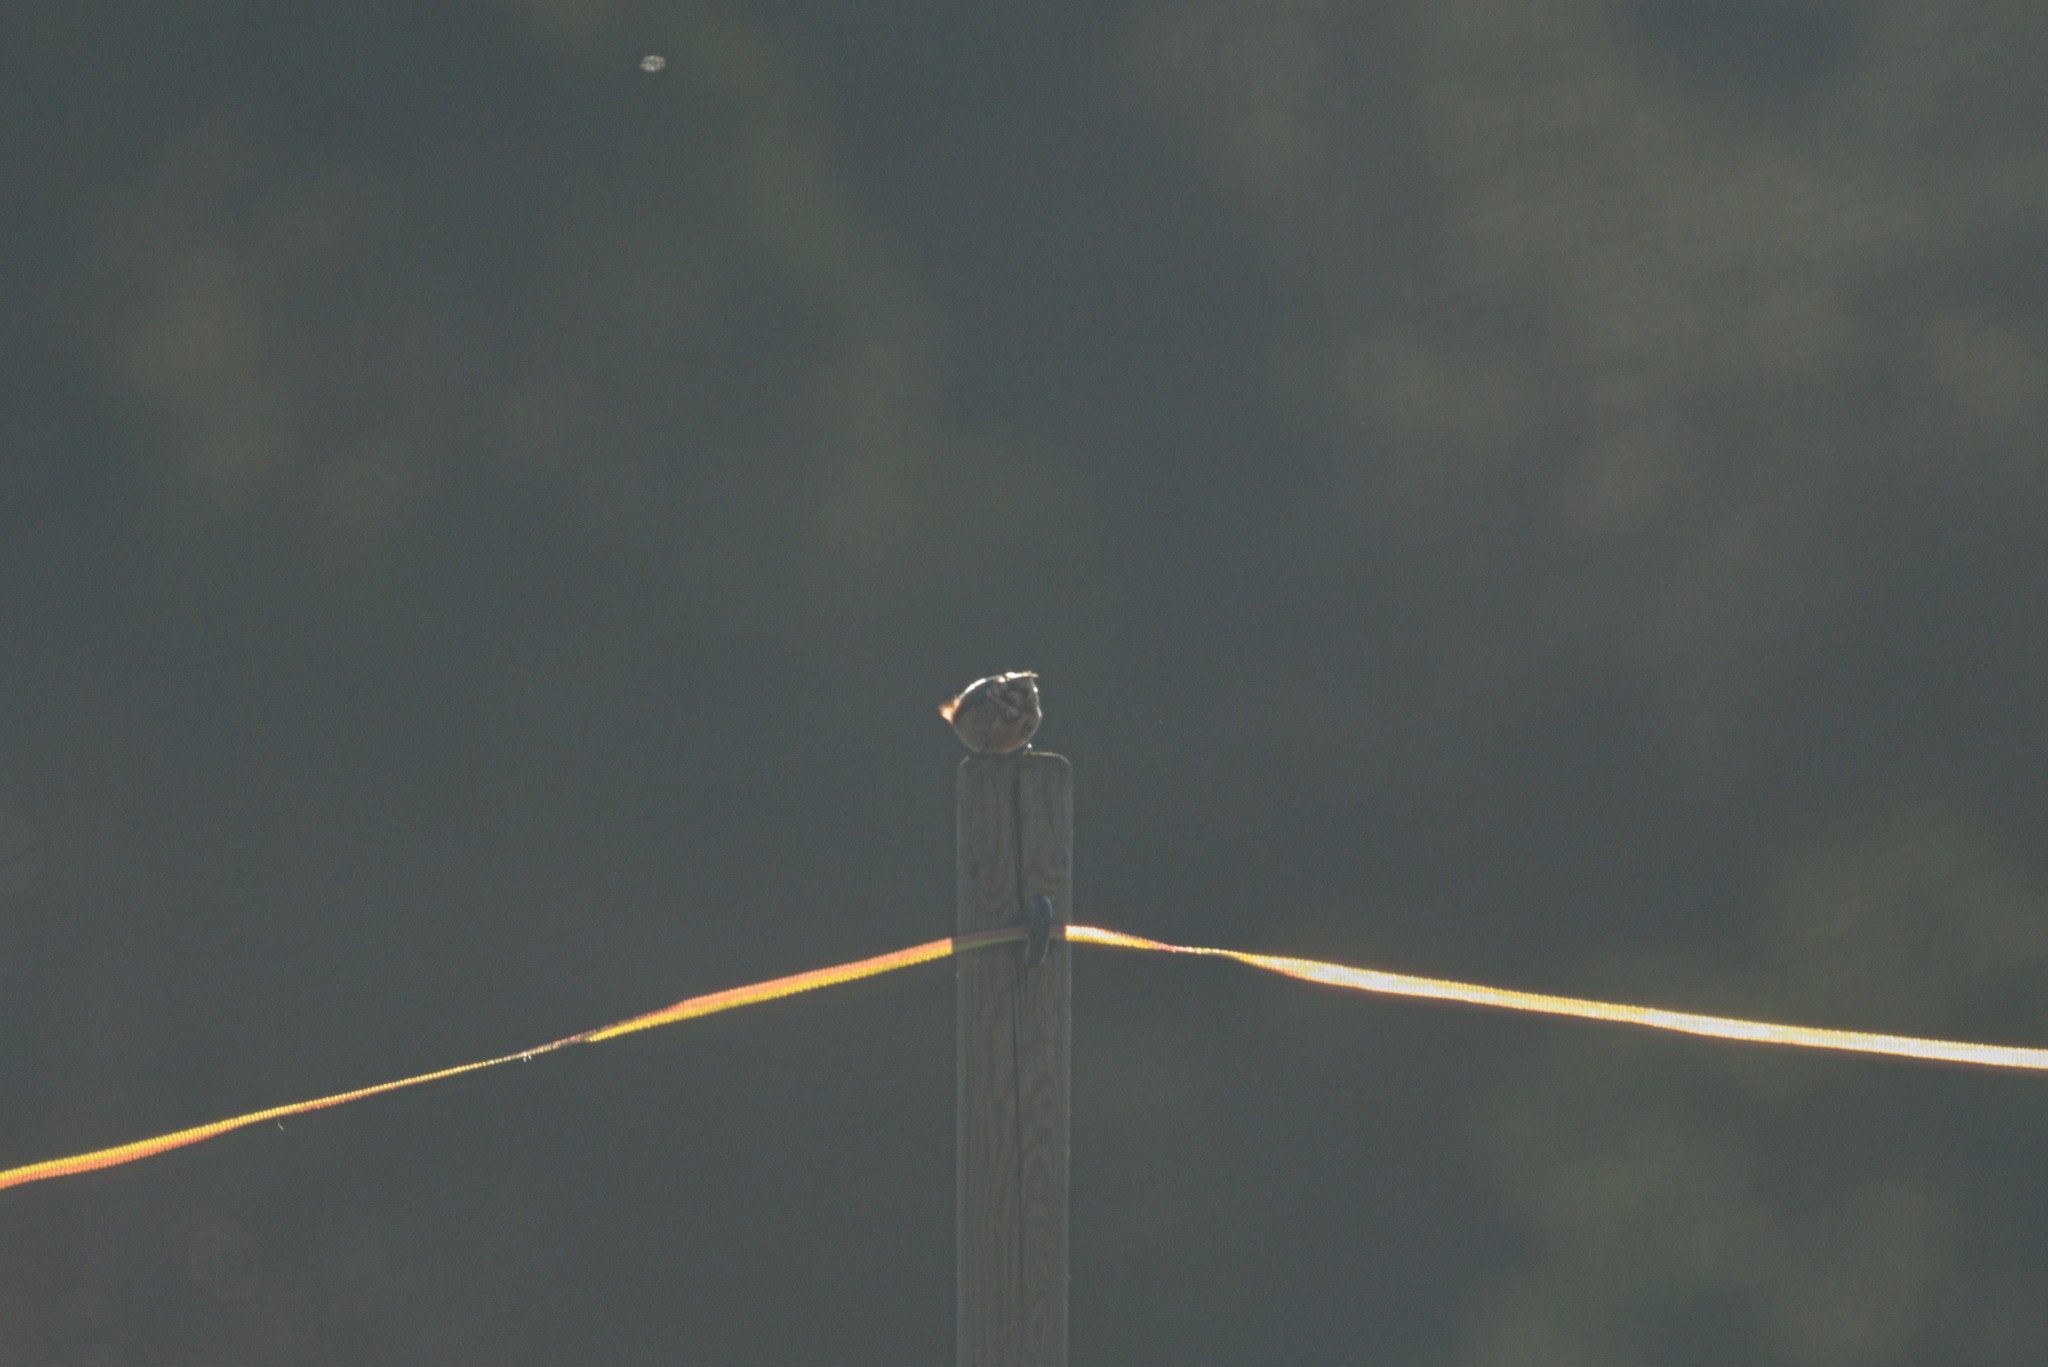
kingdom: Animalia
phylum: Chordata
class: Aves
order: Passeriformes
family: Sittidae
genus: Sitta
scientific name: Sitta europaea
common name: Eurasian nuthatch
